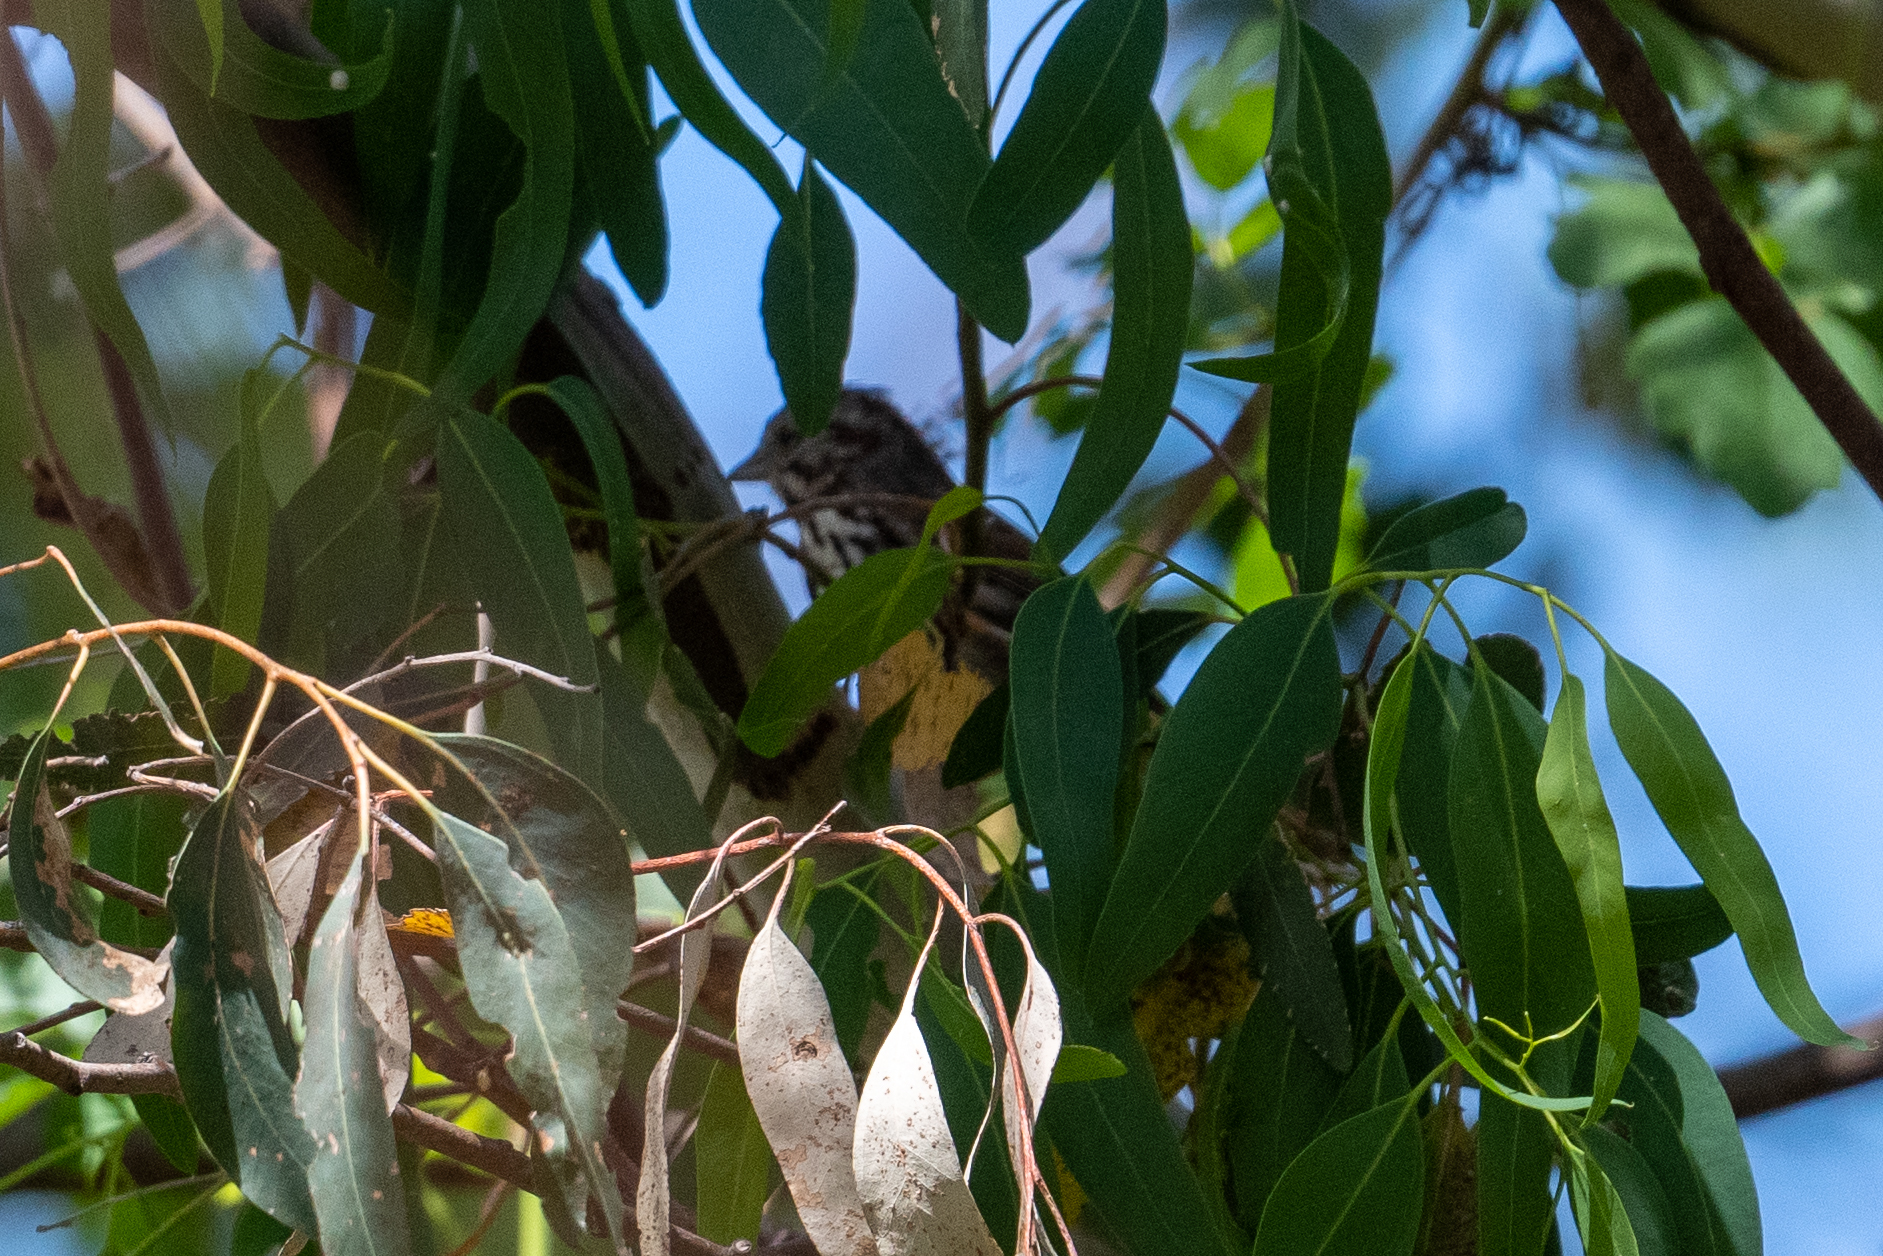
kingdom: Animalia
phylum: Chordata
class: Aves
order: Passeriformes
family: Passerellidae
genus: Melospiza
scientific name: Melospiza melodia
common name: Song sparrow
